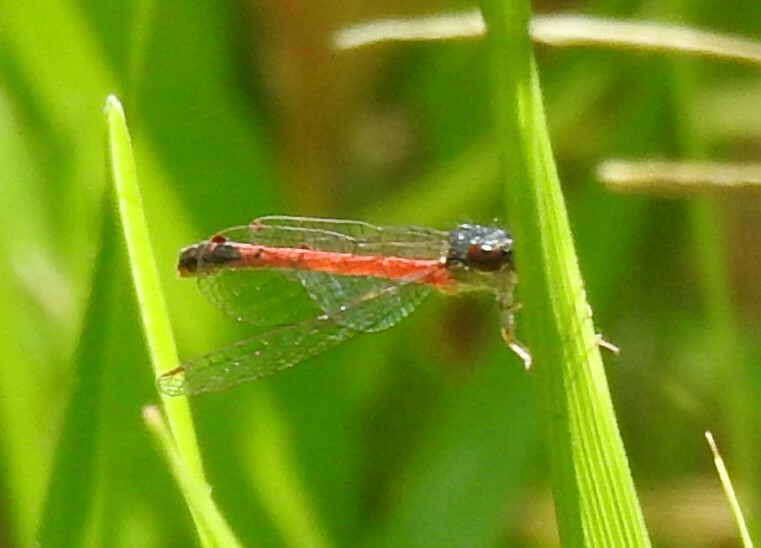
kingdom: Animalia
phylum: Arthropoda
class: Insecta
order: Odonata
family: Coenagrionidae
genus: Amphiagrion
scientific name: Amphiagrion saucium
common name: Eastern red damsel
